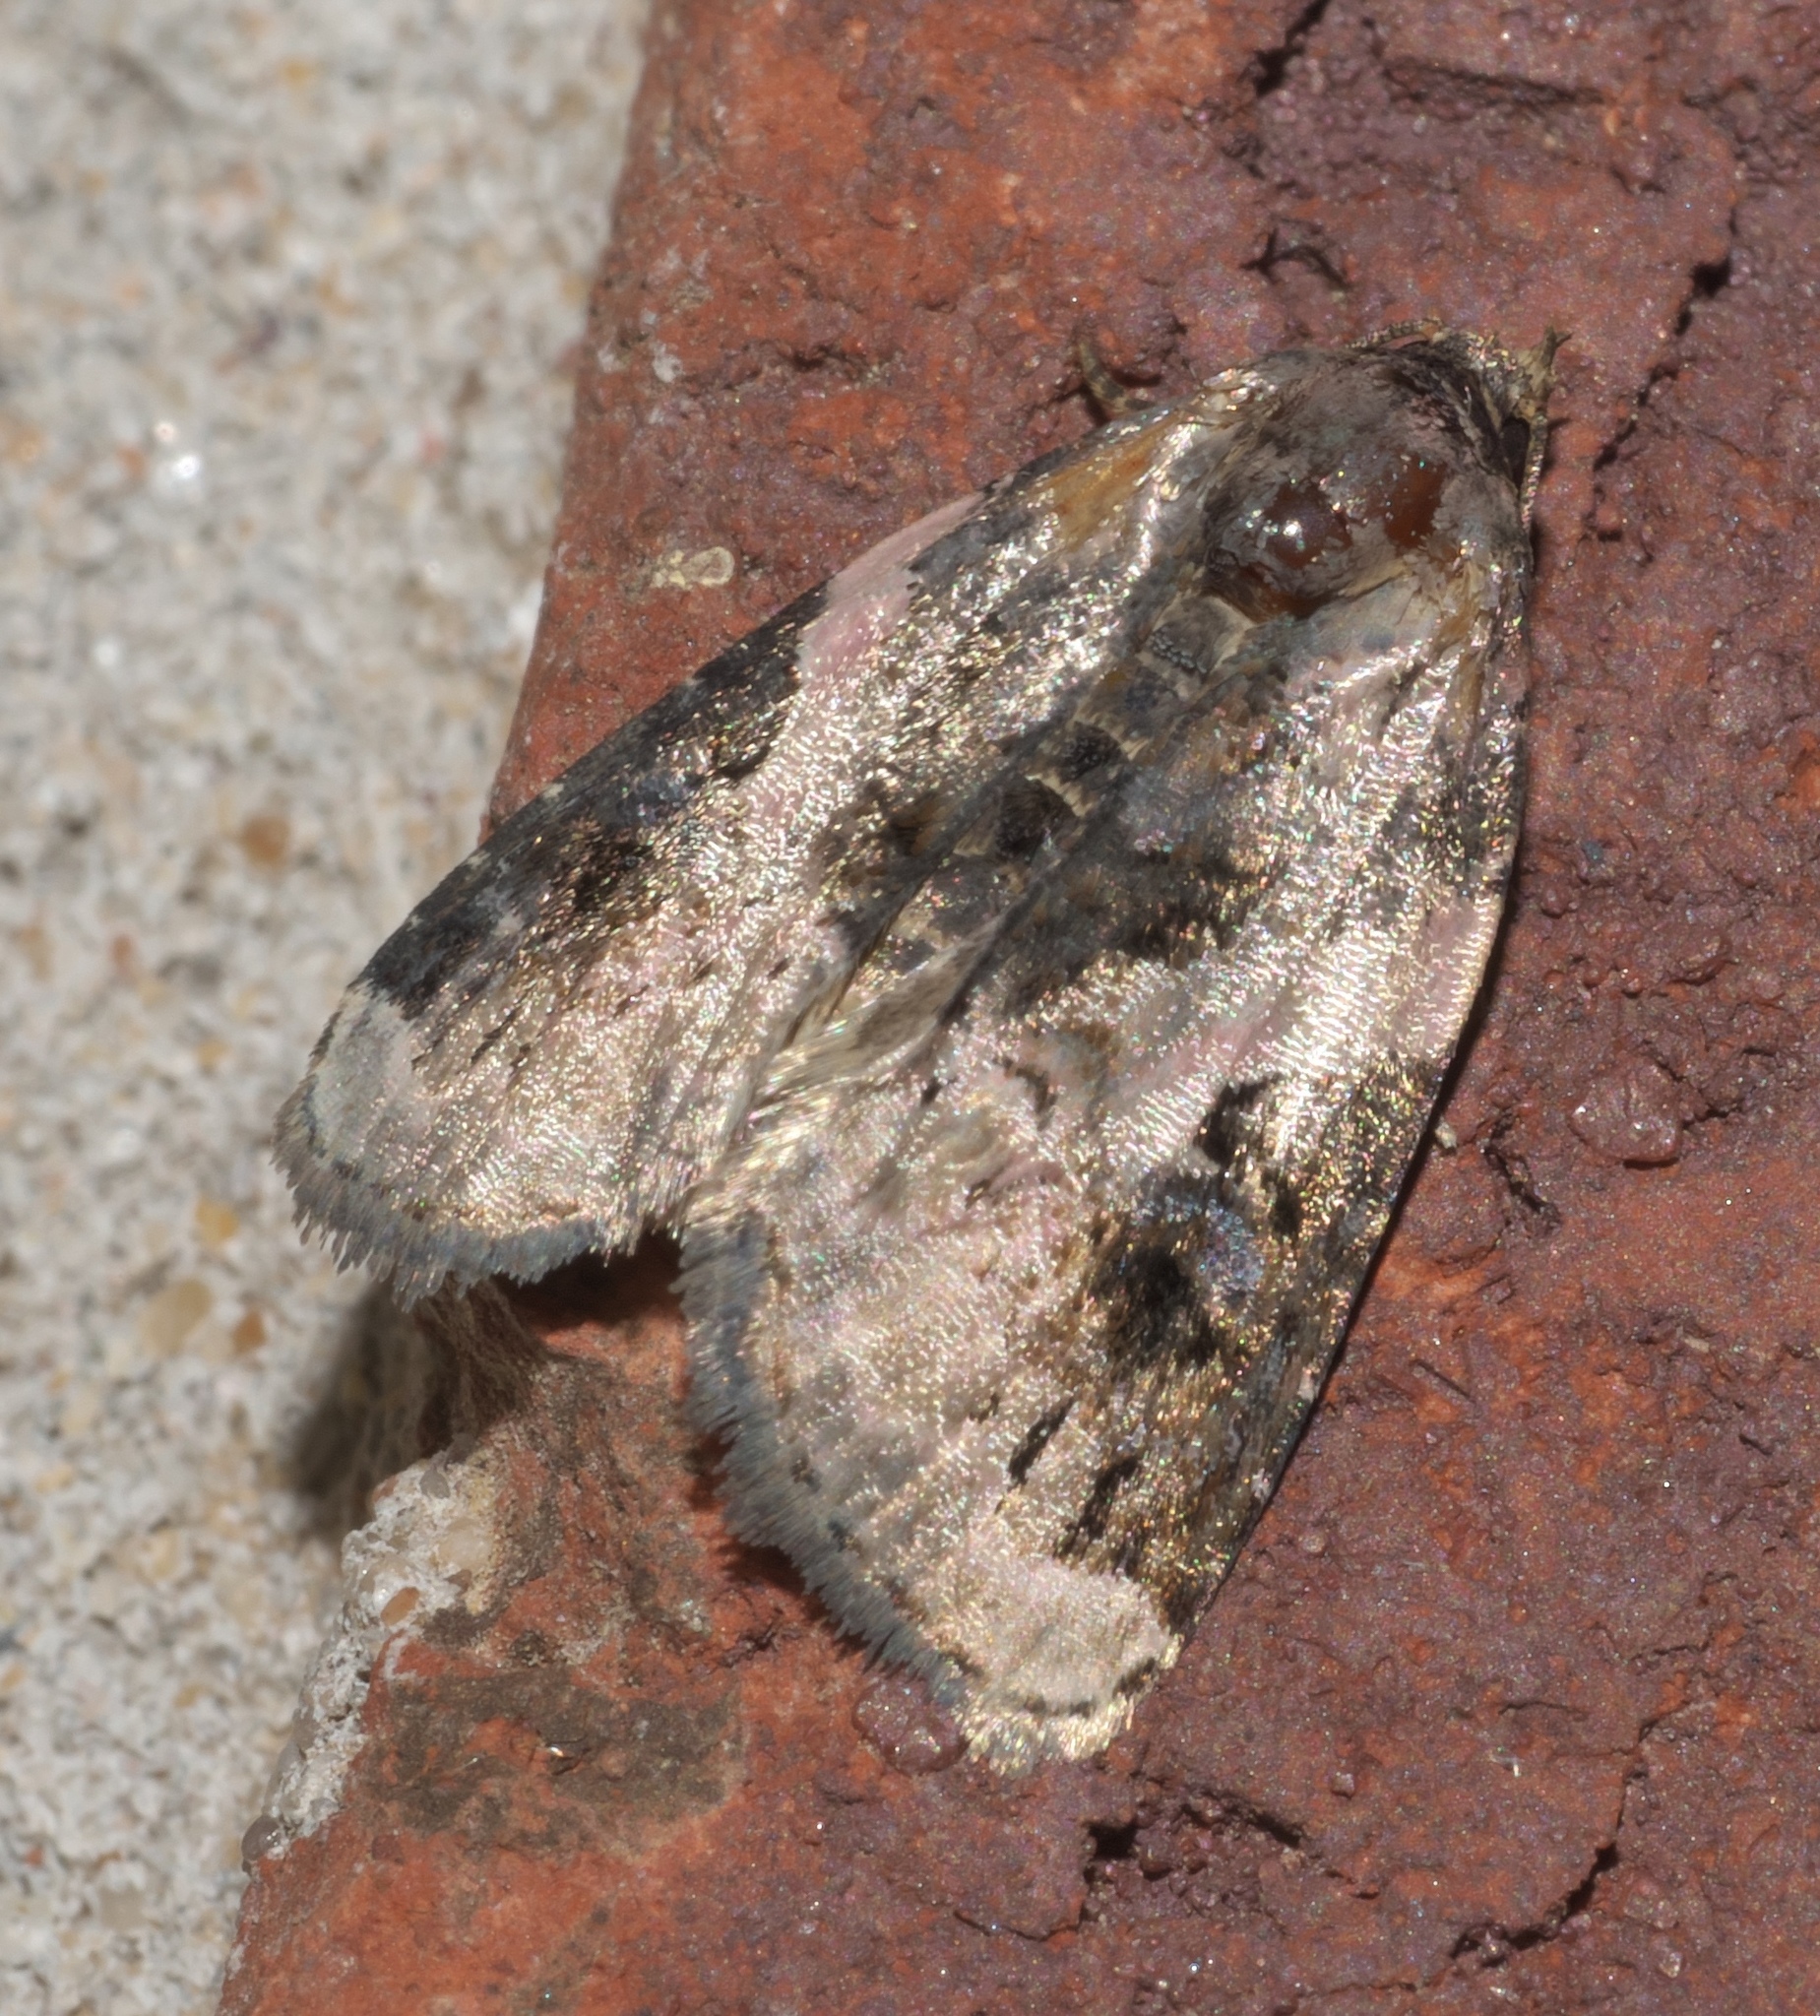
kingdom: Animalia
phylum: Arthropoda
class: Insecta
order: Lepidoptera
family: Noctuidae
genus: Pseudeustrotia
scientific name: Pseudeustrotia carneola
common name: Pink-barred lithacodia moth
